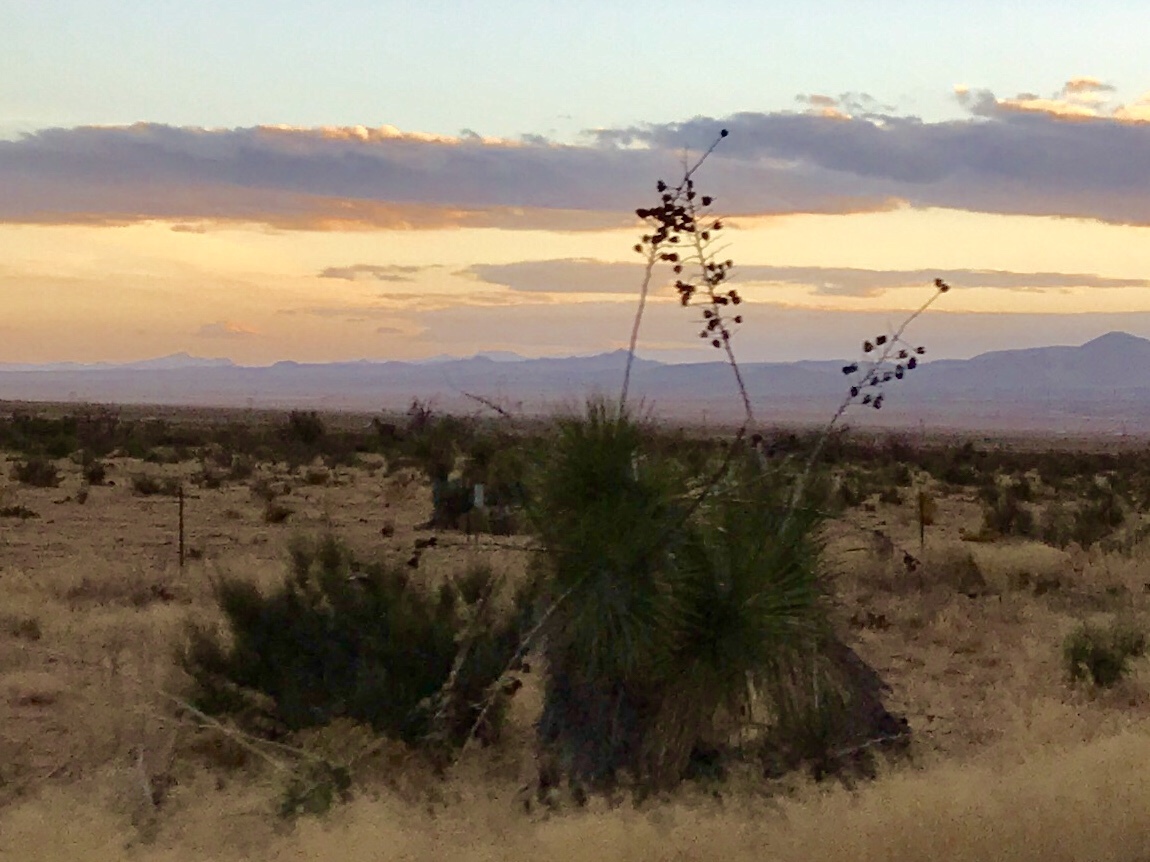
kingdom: Plantae
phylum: Tracheophyta
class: Liliopsida
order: Asparagales
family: Asparagaceae
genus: Yucca
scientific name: Yucca elata
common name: Palmella
